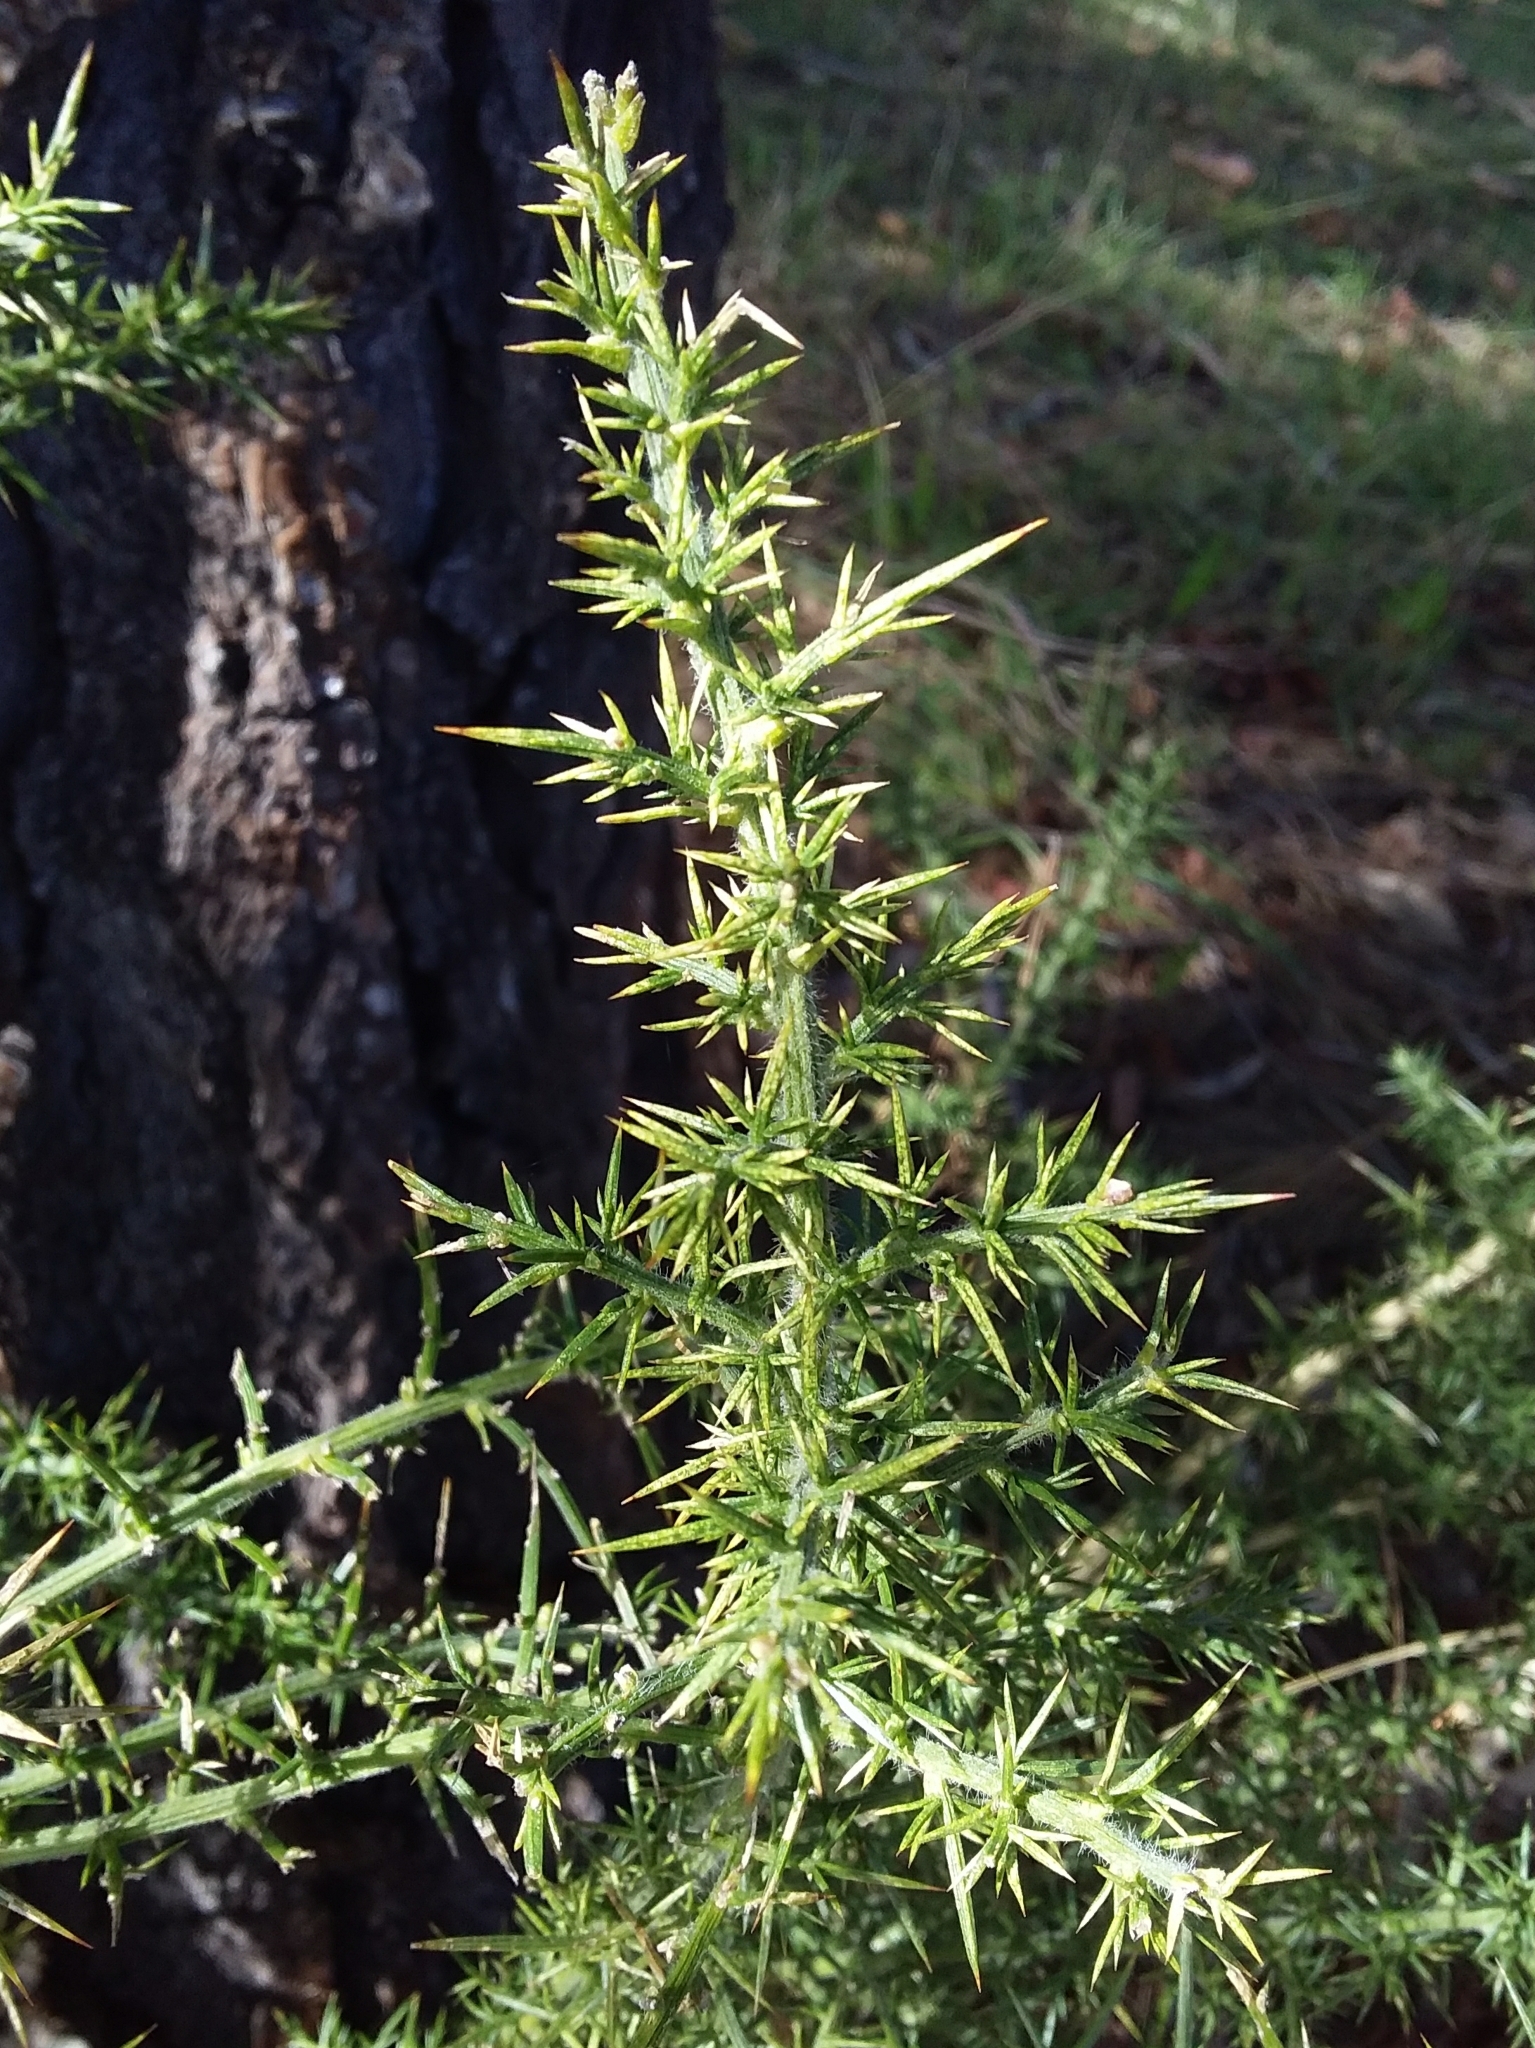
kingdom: Plantae
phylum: Tracheophyta
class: Magnoliopsida
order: Fabales
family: Fabaceae
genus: Ulex
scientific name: Ulex europaeus
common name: Common gorse
